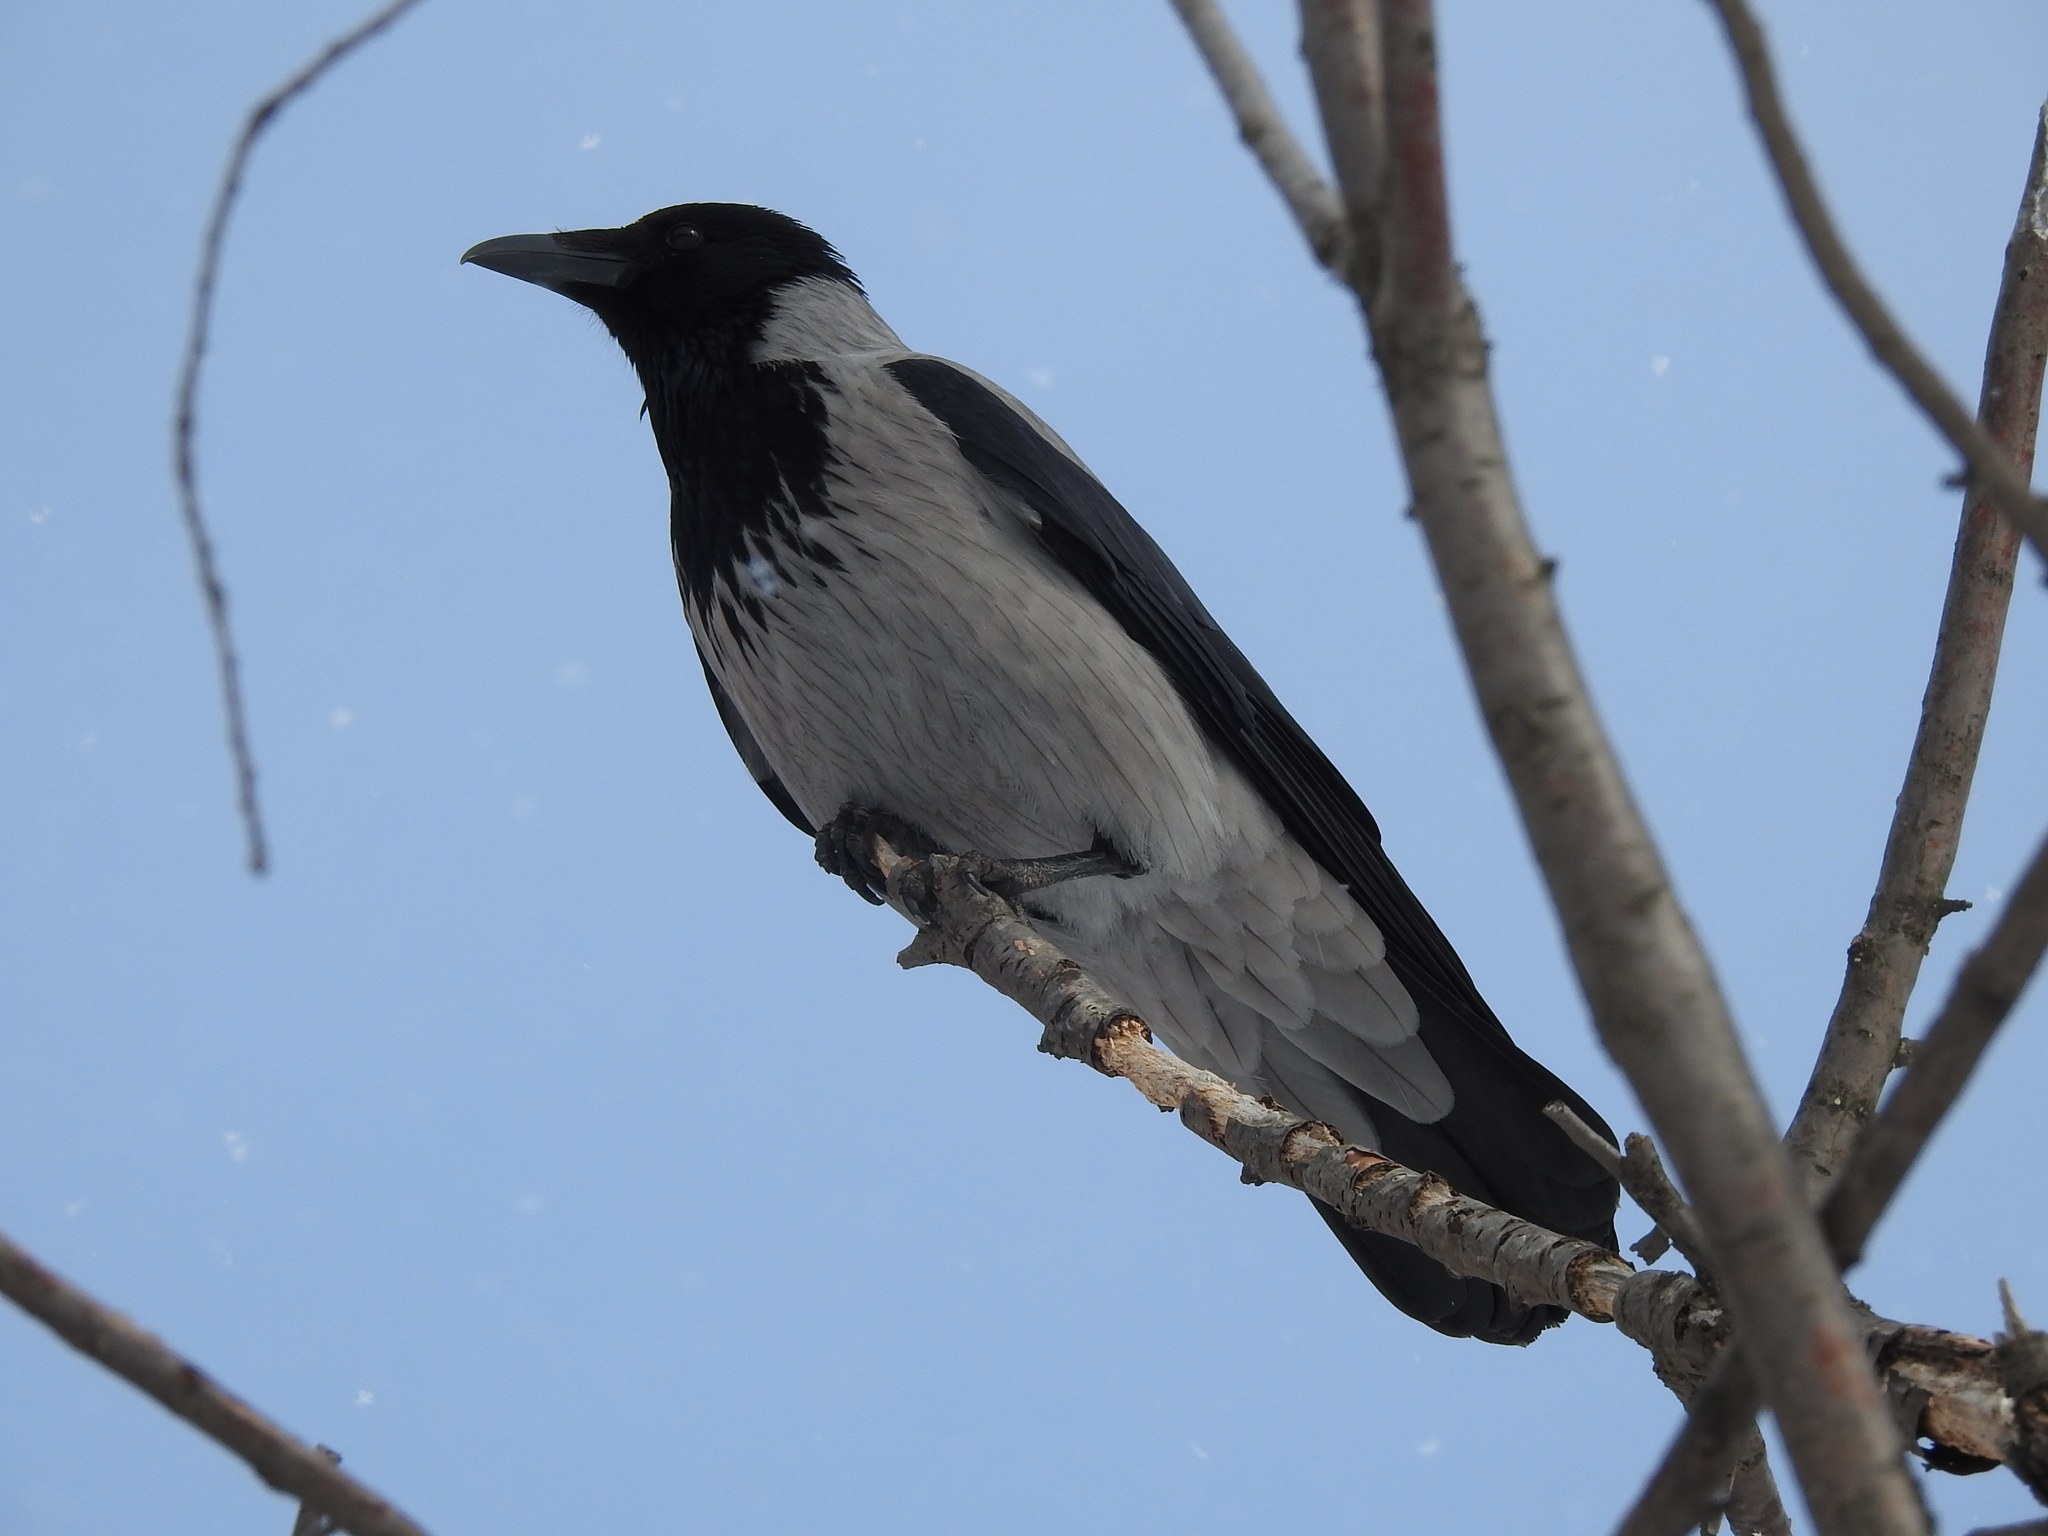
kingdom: Animalia
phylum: Chordata
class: Aves
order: Passeriformes
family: Corvidae
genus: Corvus
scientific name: Corvus cornix
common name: Hooded crow
